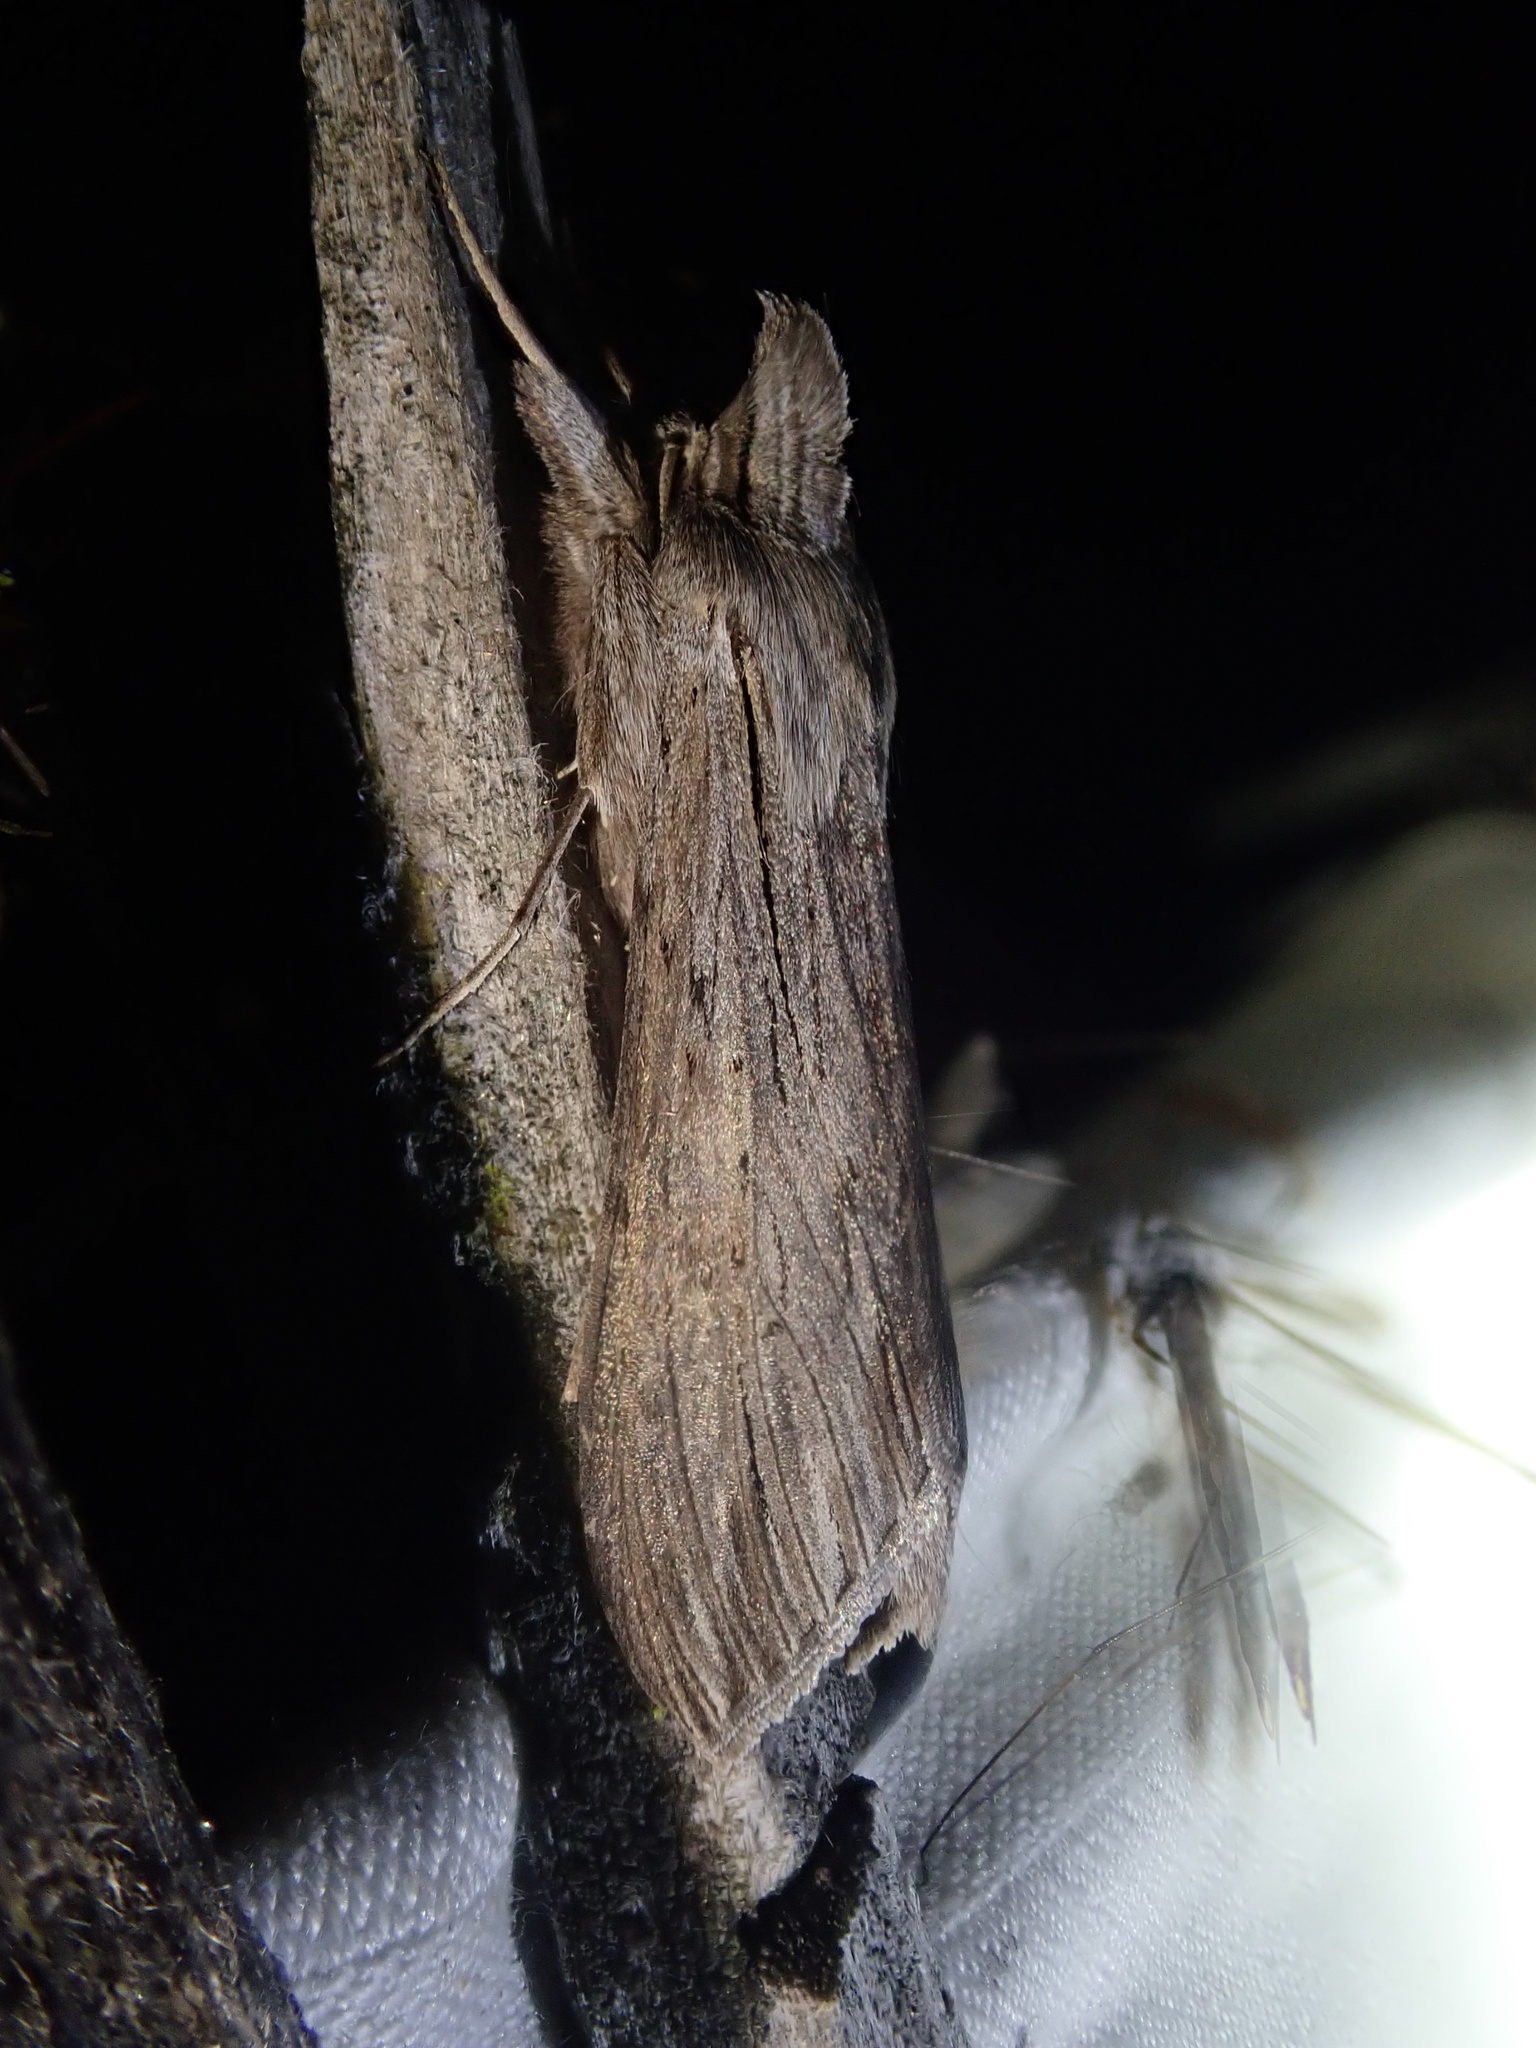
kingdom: Animalia
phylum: Arthropoda
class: Insecta
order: Lepidoptera
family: Noctuidae
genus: Cucullia
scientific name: Cucullia umbratica
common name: Shark
